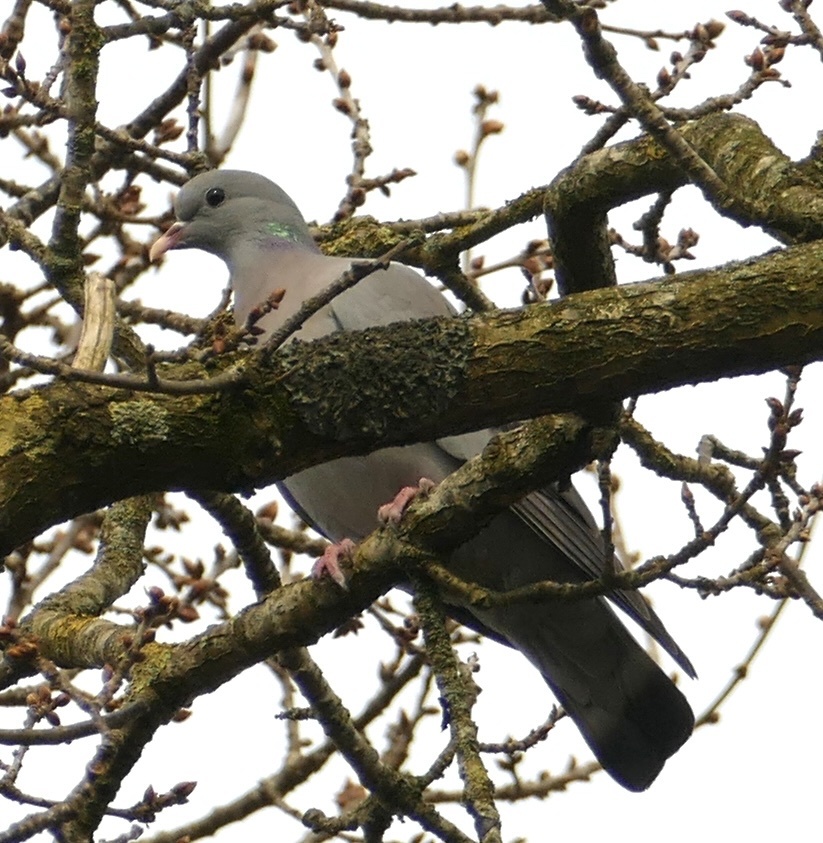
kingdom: Animalia
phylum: Chordata
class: Aves
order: Columbiformes
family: Columbidae
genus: Columba
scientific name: Columba oenas
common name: Stock dove
